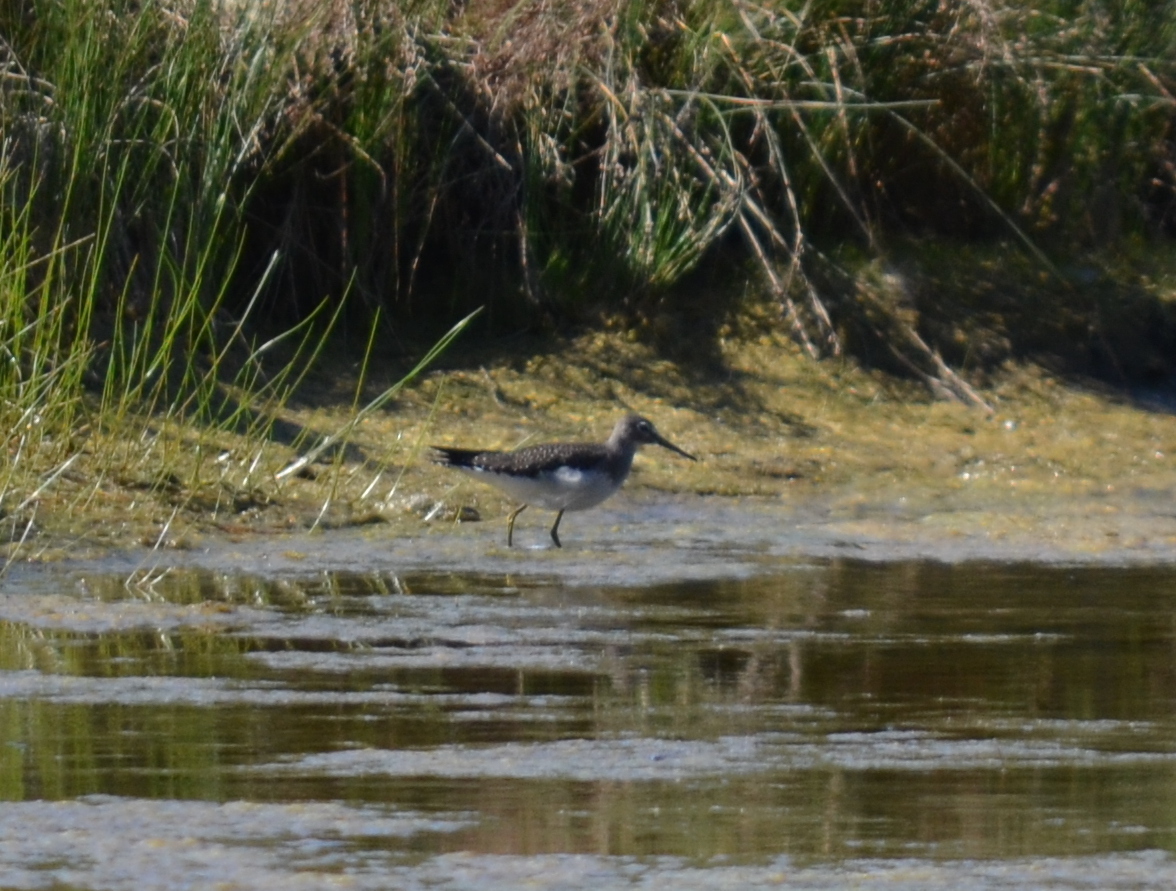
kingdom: Animalia
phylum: Chordata
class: Aves
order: Charadriiformes
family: Scolopacidae
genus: Tringa
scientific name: Tringa solitaria
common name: Solitary sandpiper
